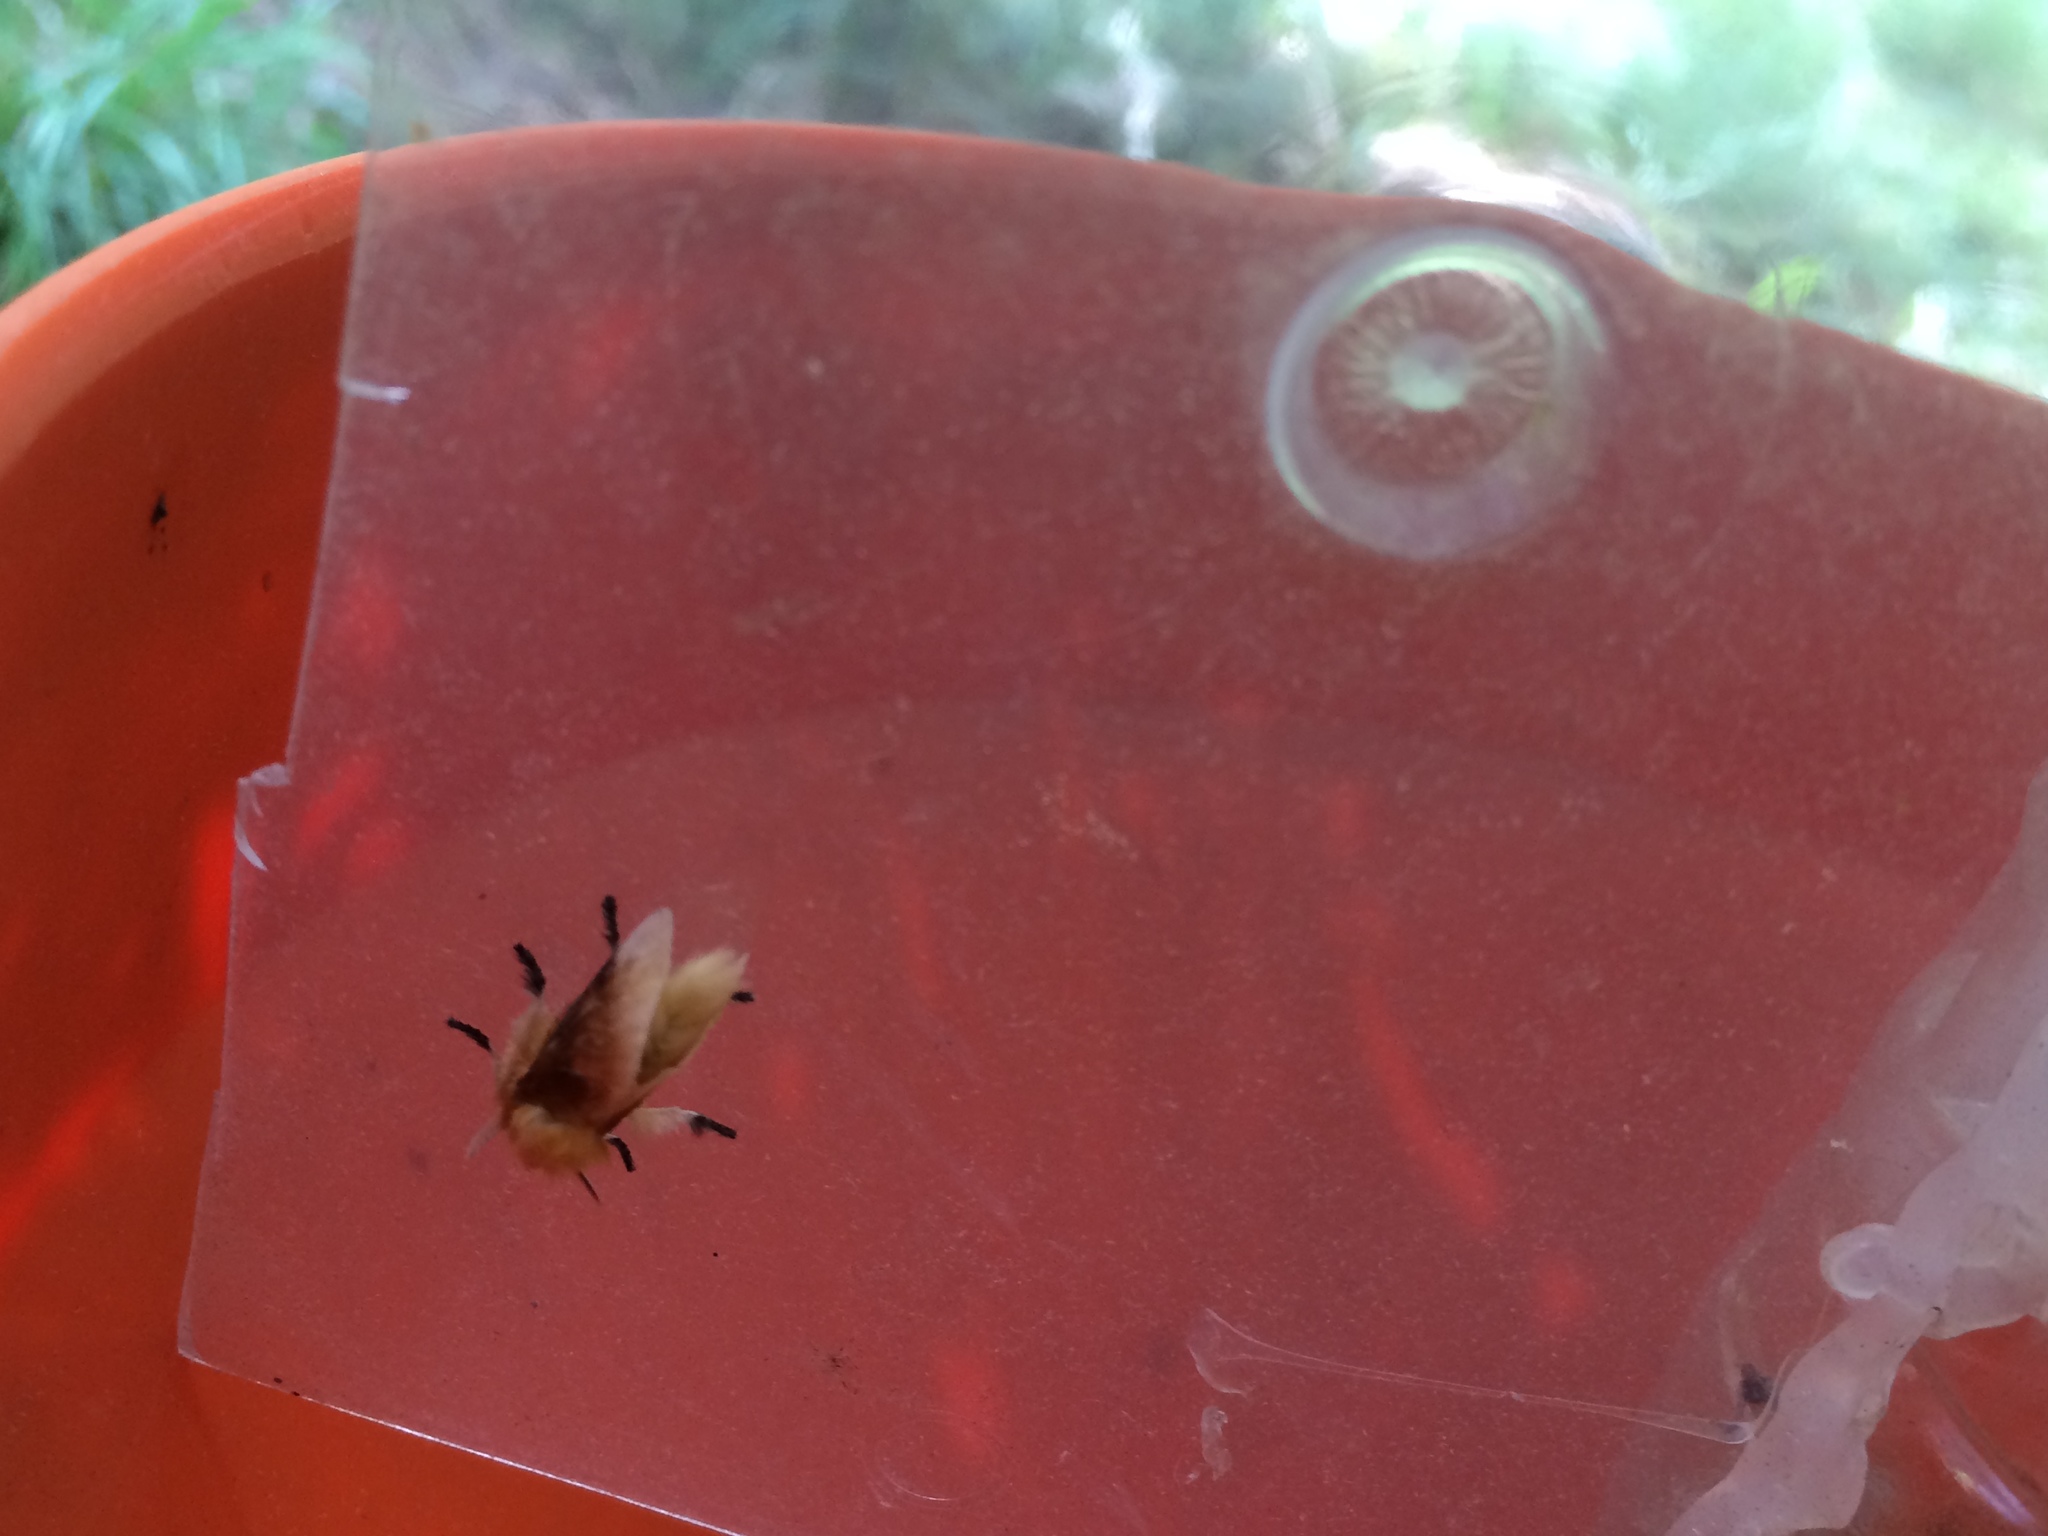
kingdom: Animalia
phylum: Arthropoda
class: Insecta
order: Lepidoptera
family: Megalopygidae
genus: Megalopyge
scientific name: Megalopyge opercularis
